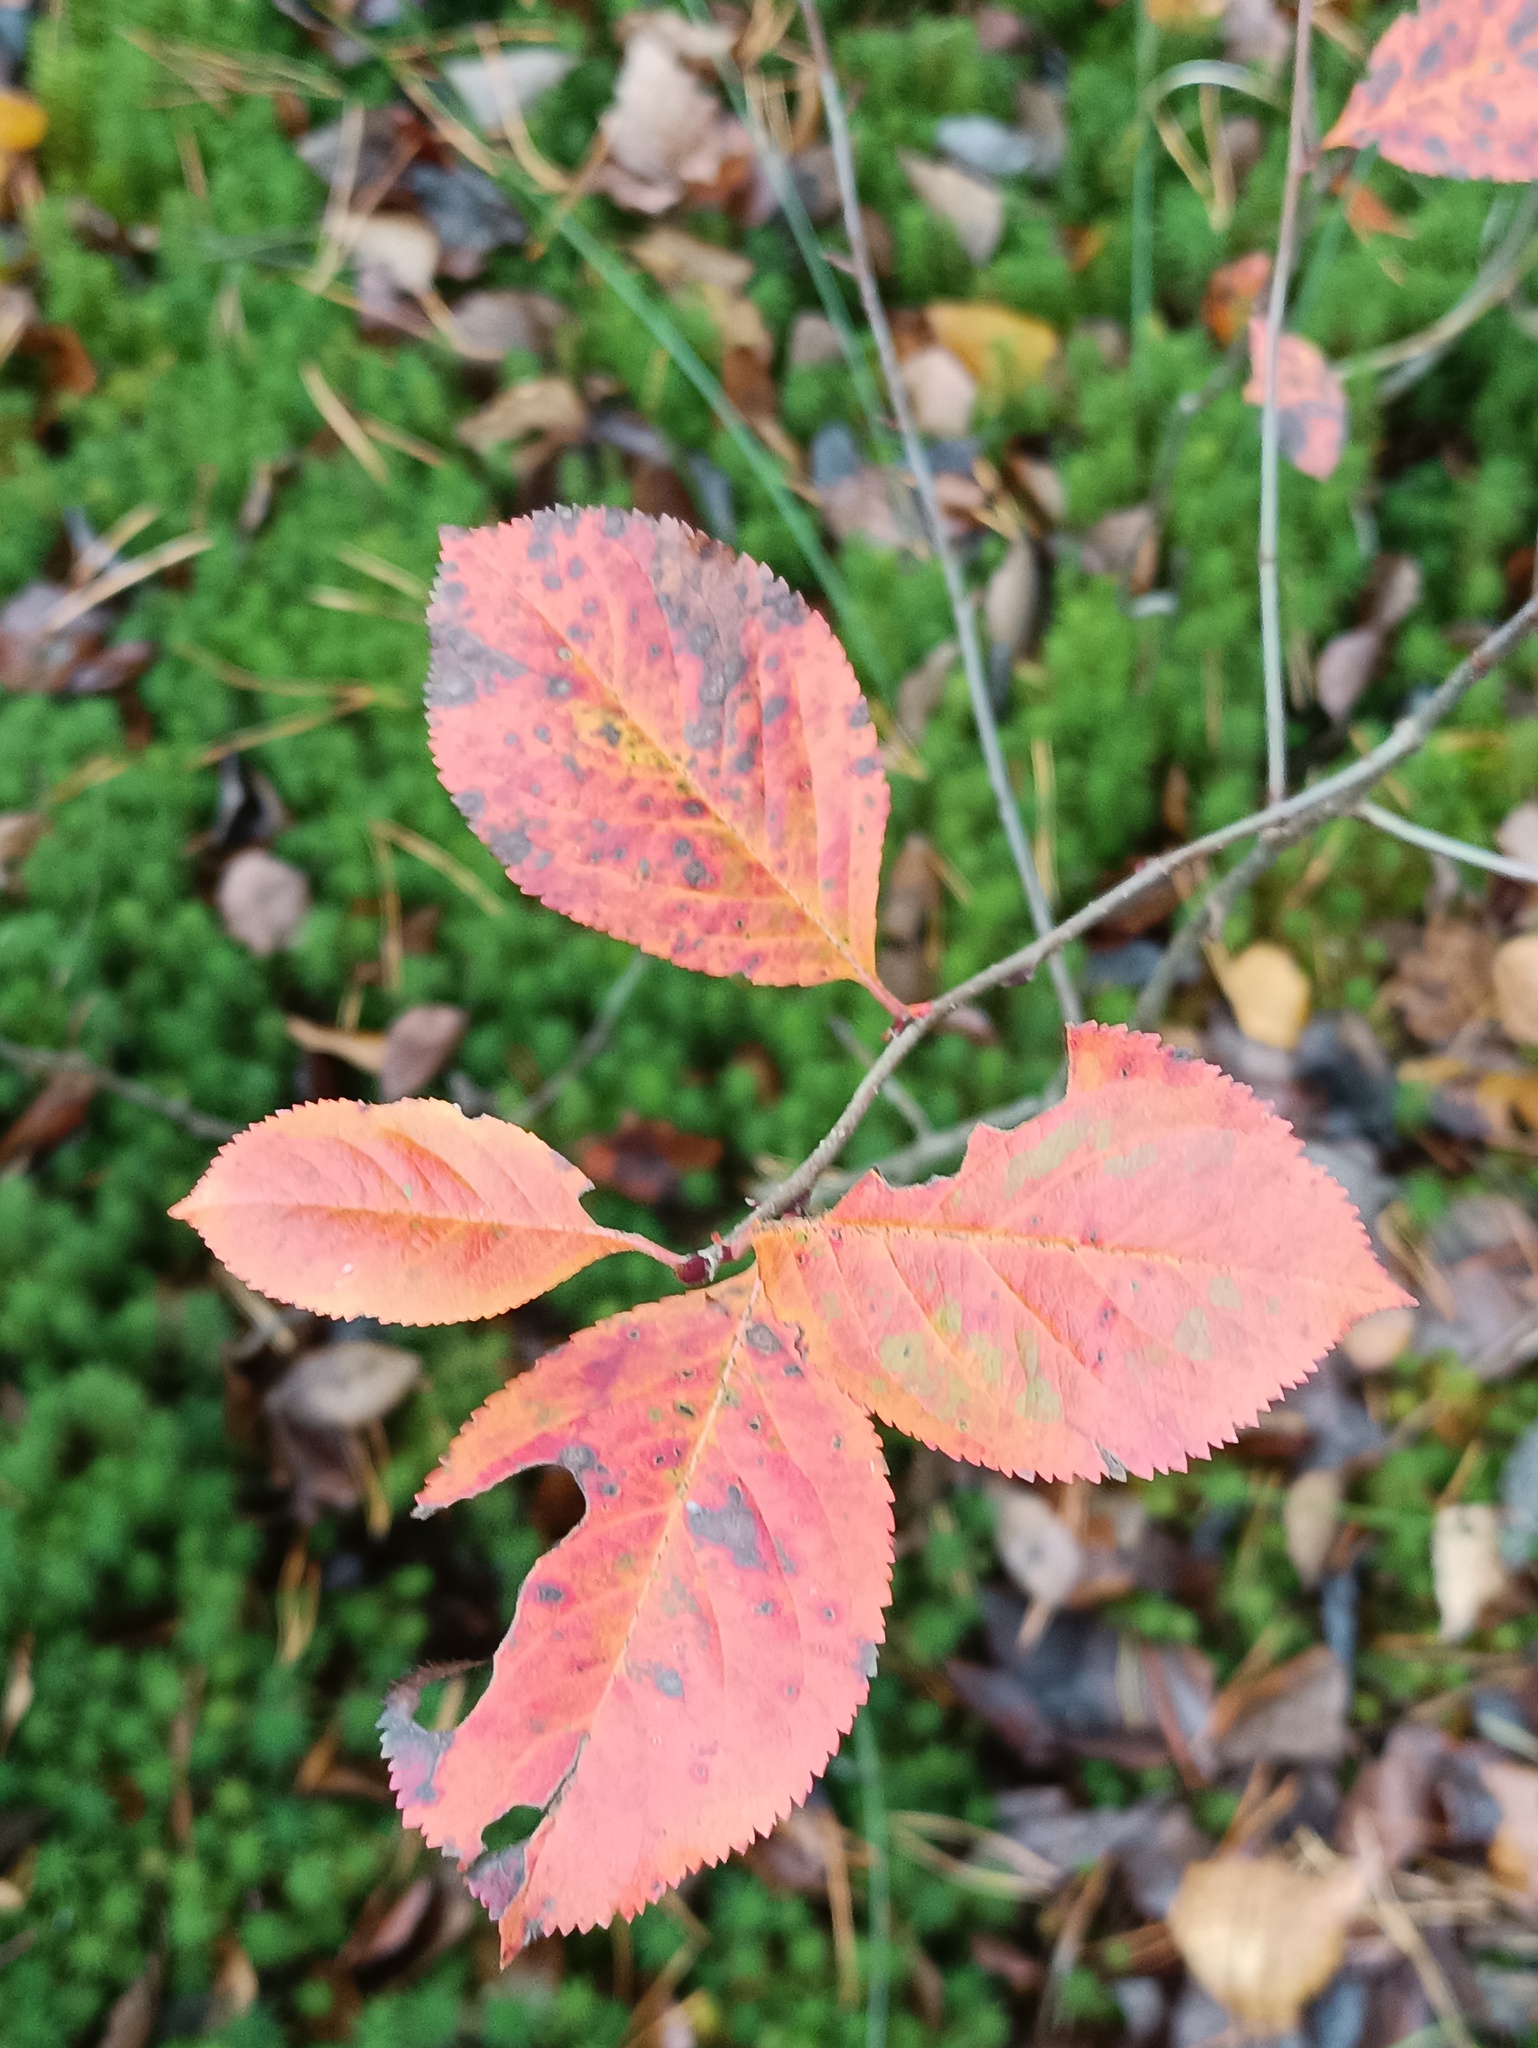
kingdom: Plantae
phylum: Tracheophyta
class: Magnoliopsida
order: Rosales
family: Rosaceae
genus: Sorbaronia
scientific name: Sorbaronia arsenii
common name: Arsène's mountain-ash
